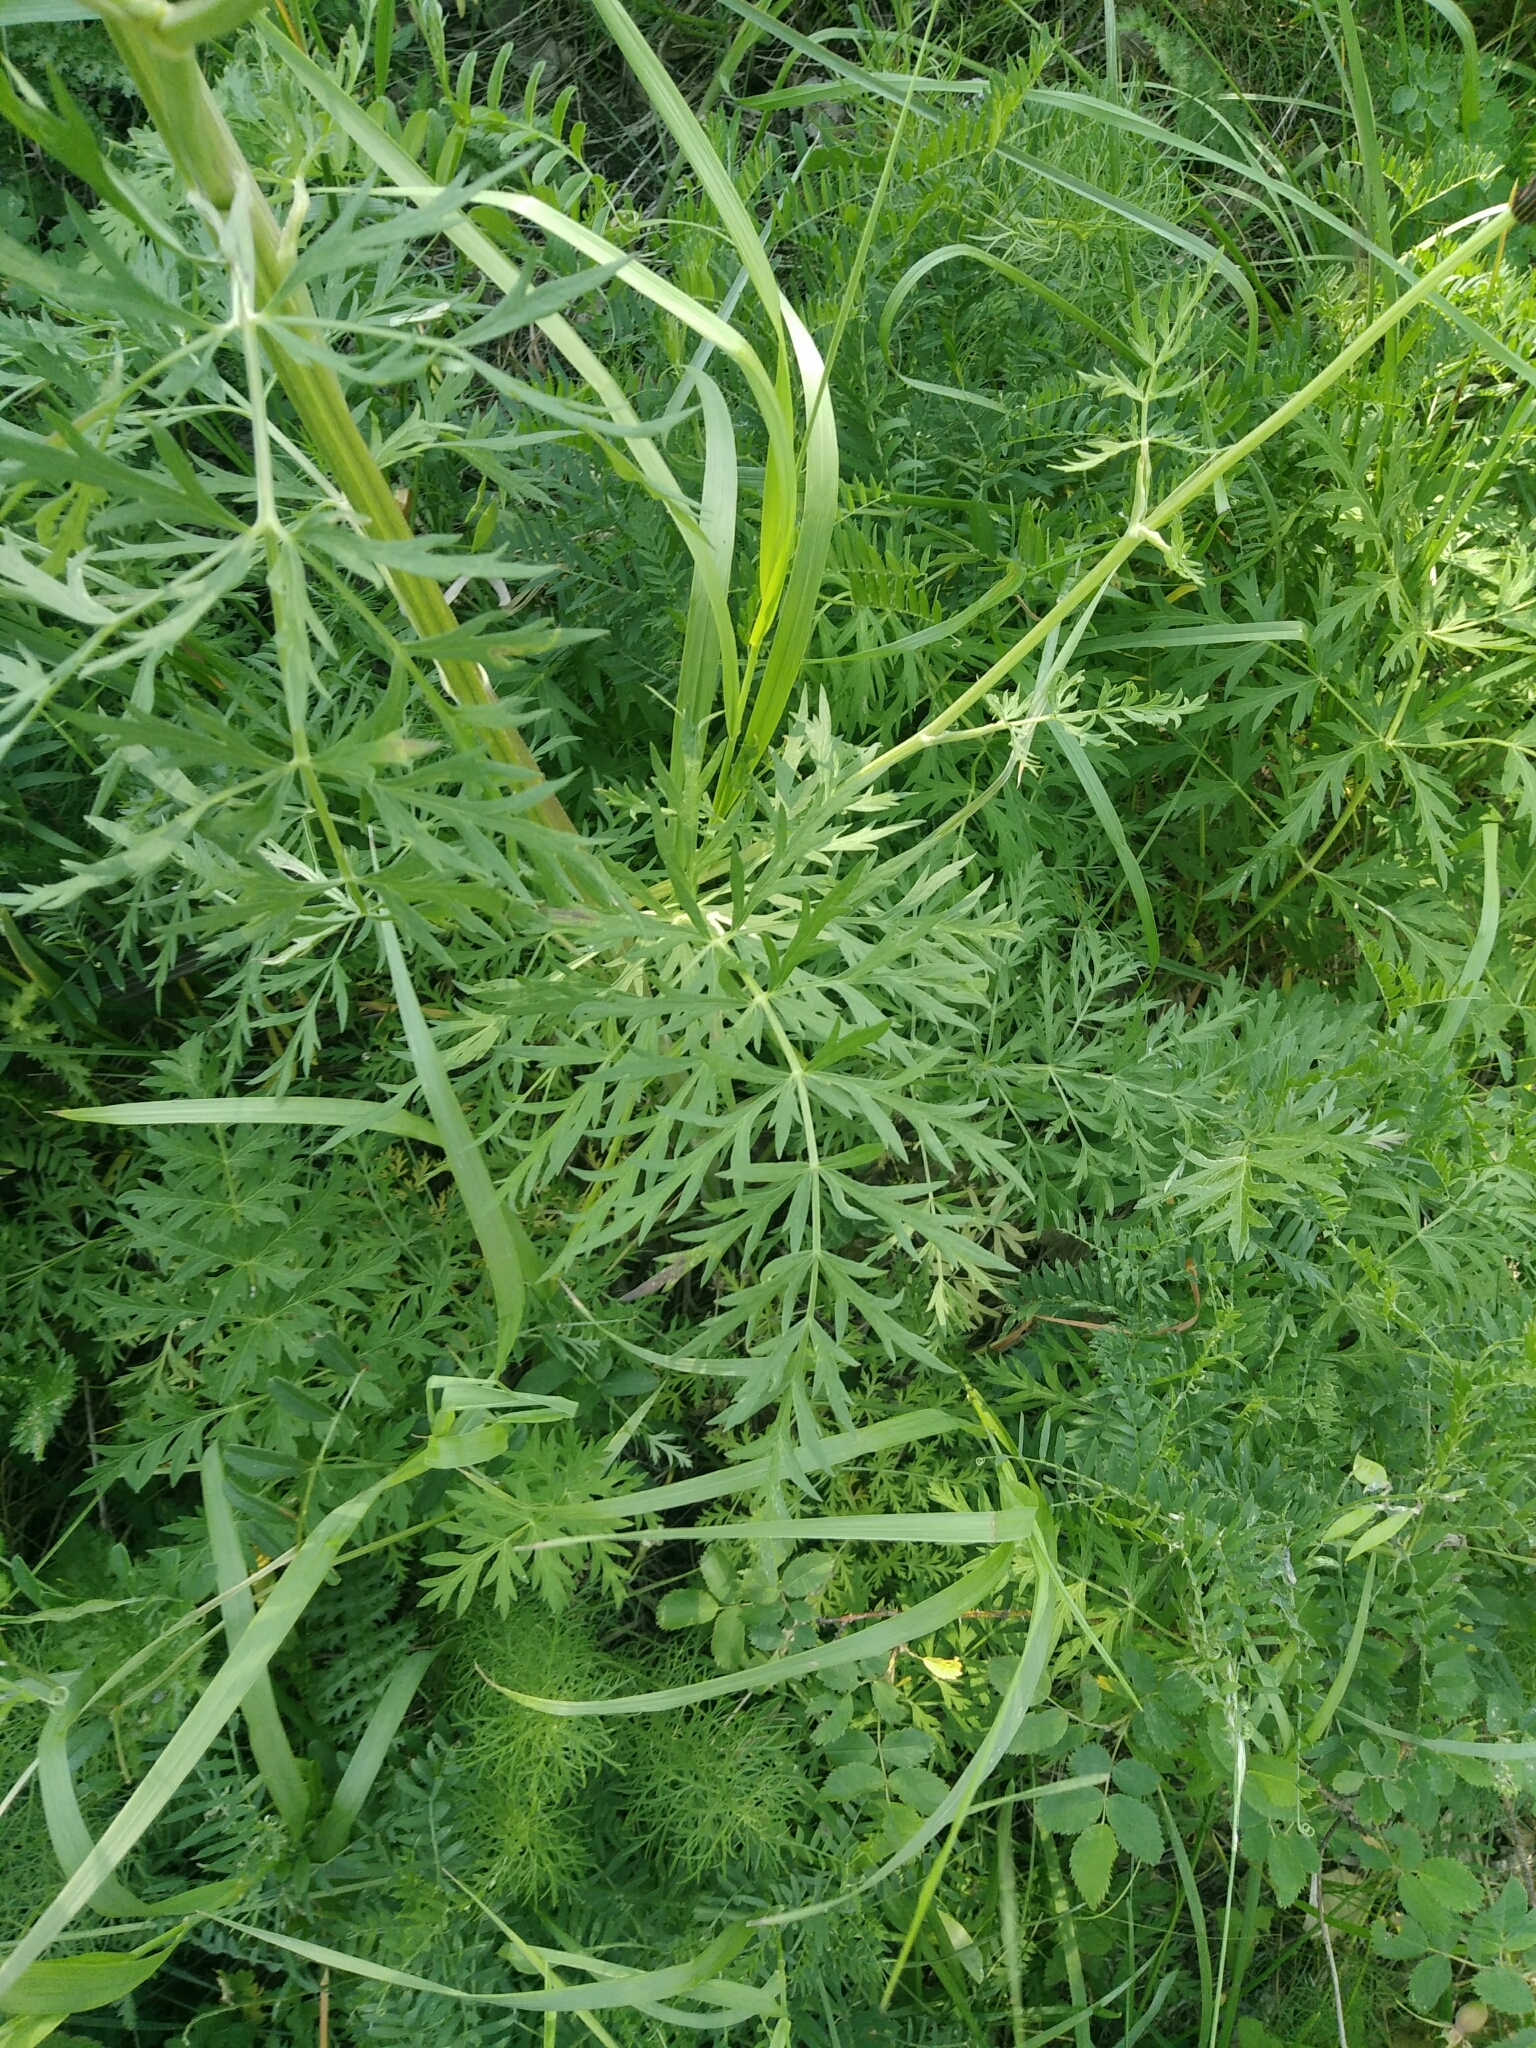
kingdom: Plantae
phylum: Tracheophyta
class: Magnoliopsida
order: Apiales
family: Apiaceae
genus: Seseli
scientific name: Seseli libanotis
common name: Mooncarrot
